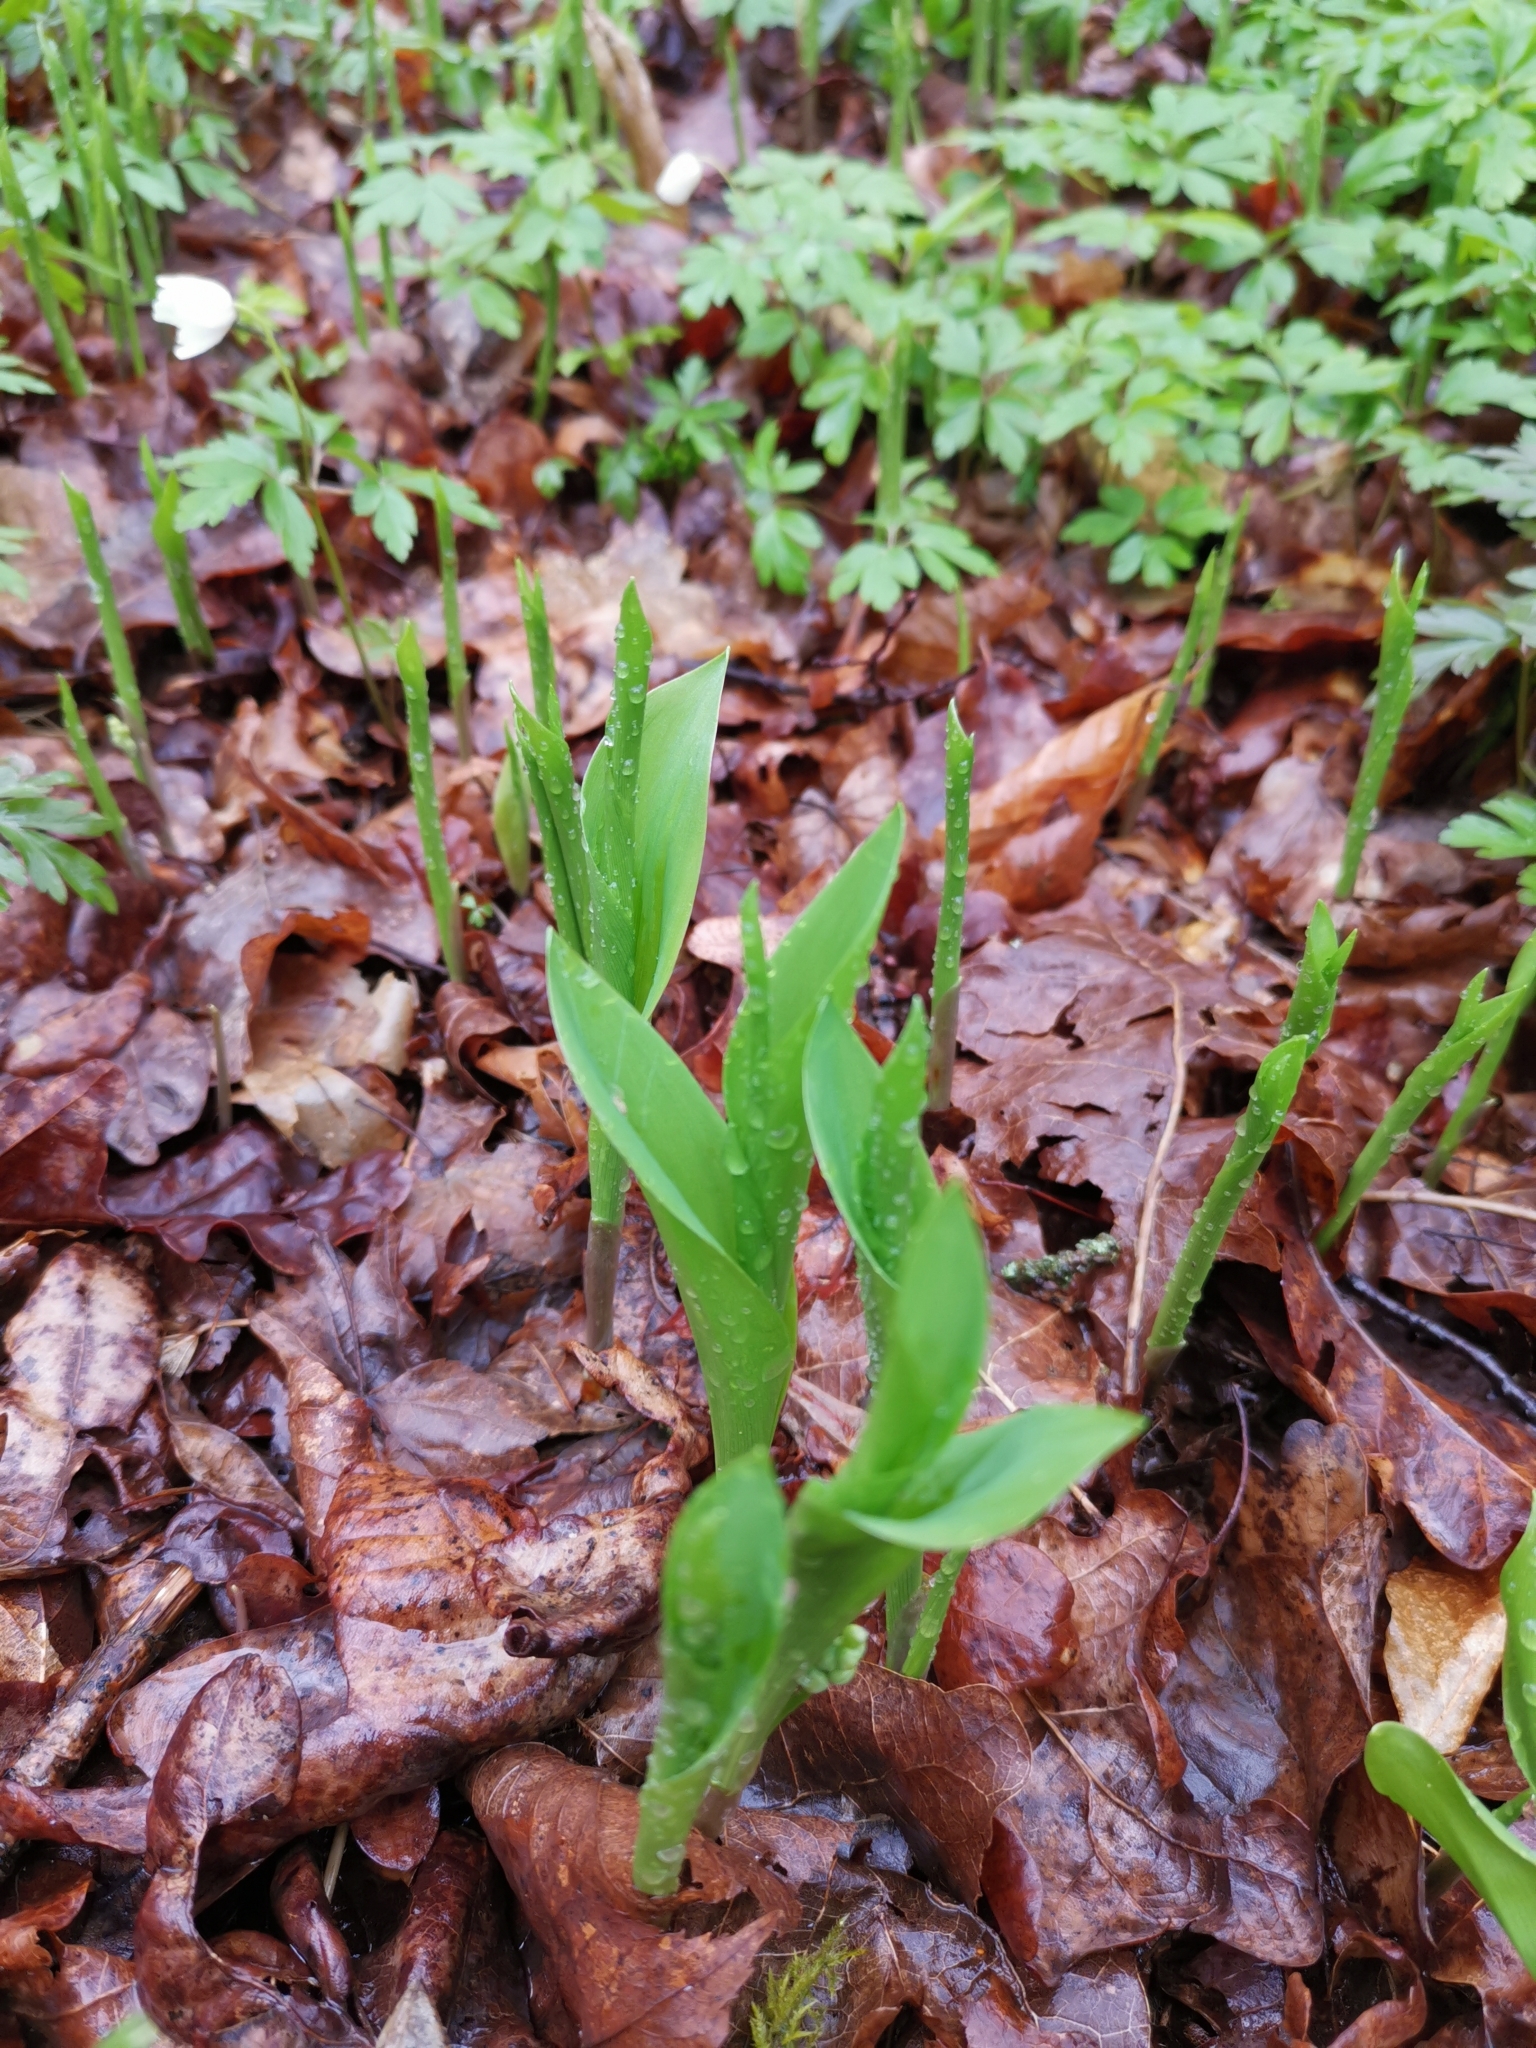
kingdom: Plantae
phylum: Tracheophyta
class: Liliopsida
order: Asparagales
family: Asparagaceae
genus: Convallaria
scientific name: Convallaria majalis
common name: Lily-of-the-valley
